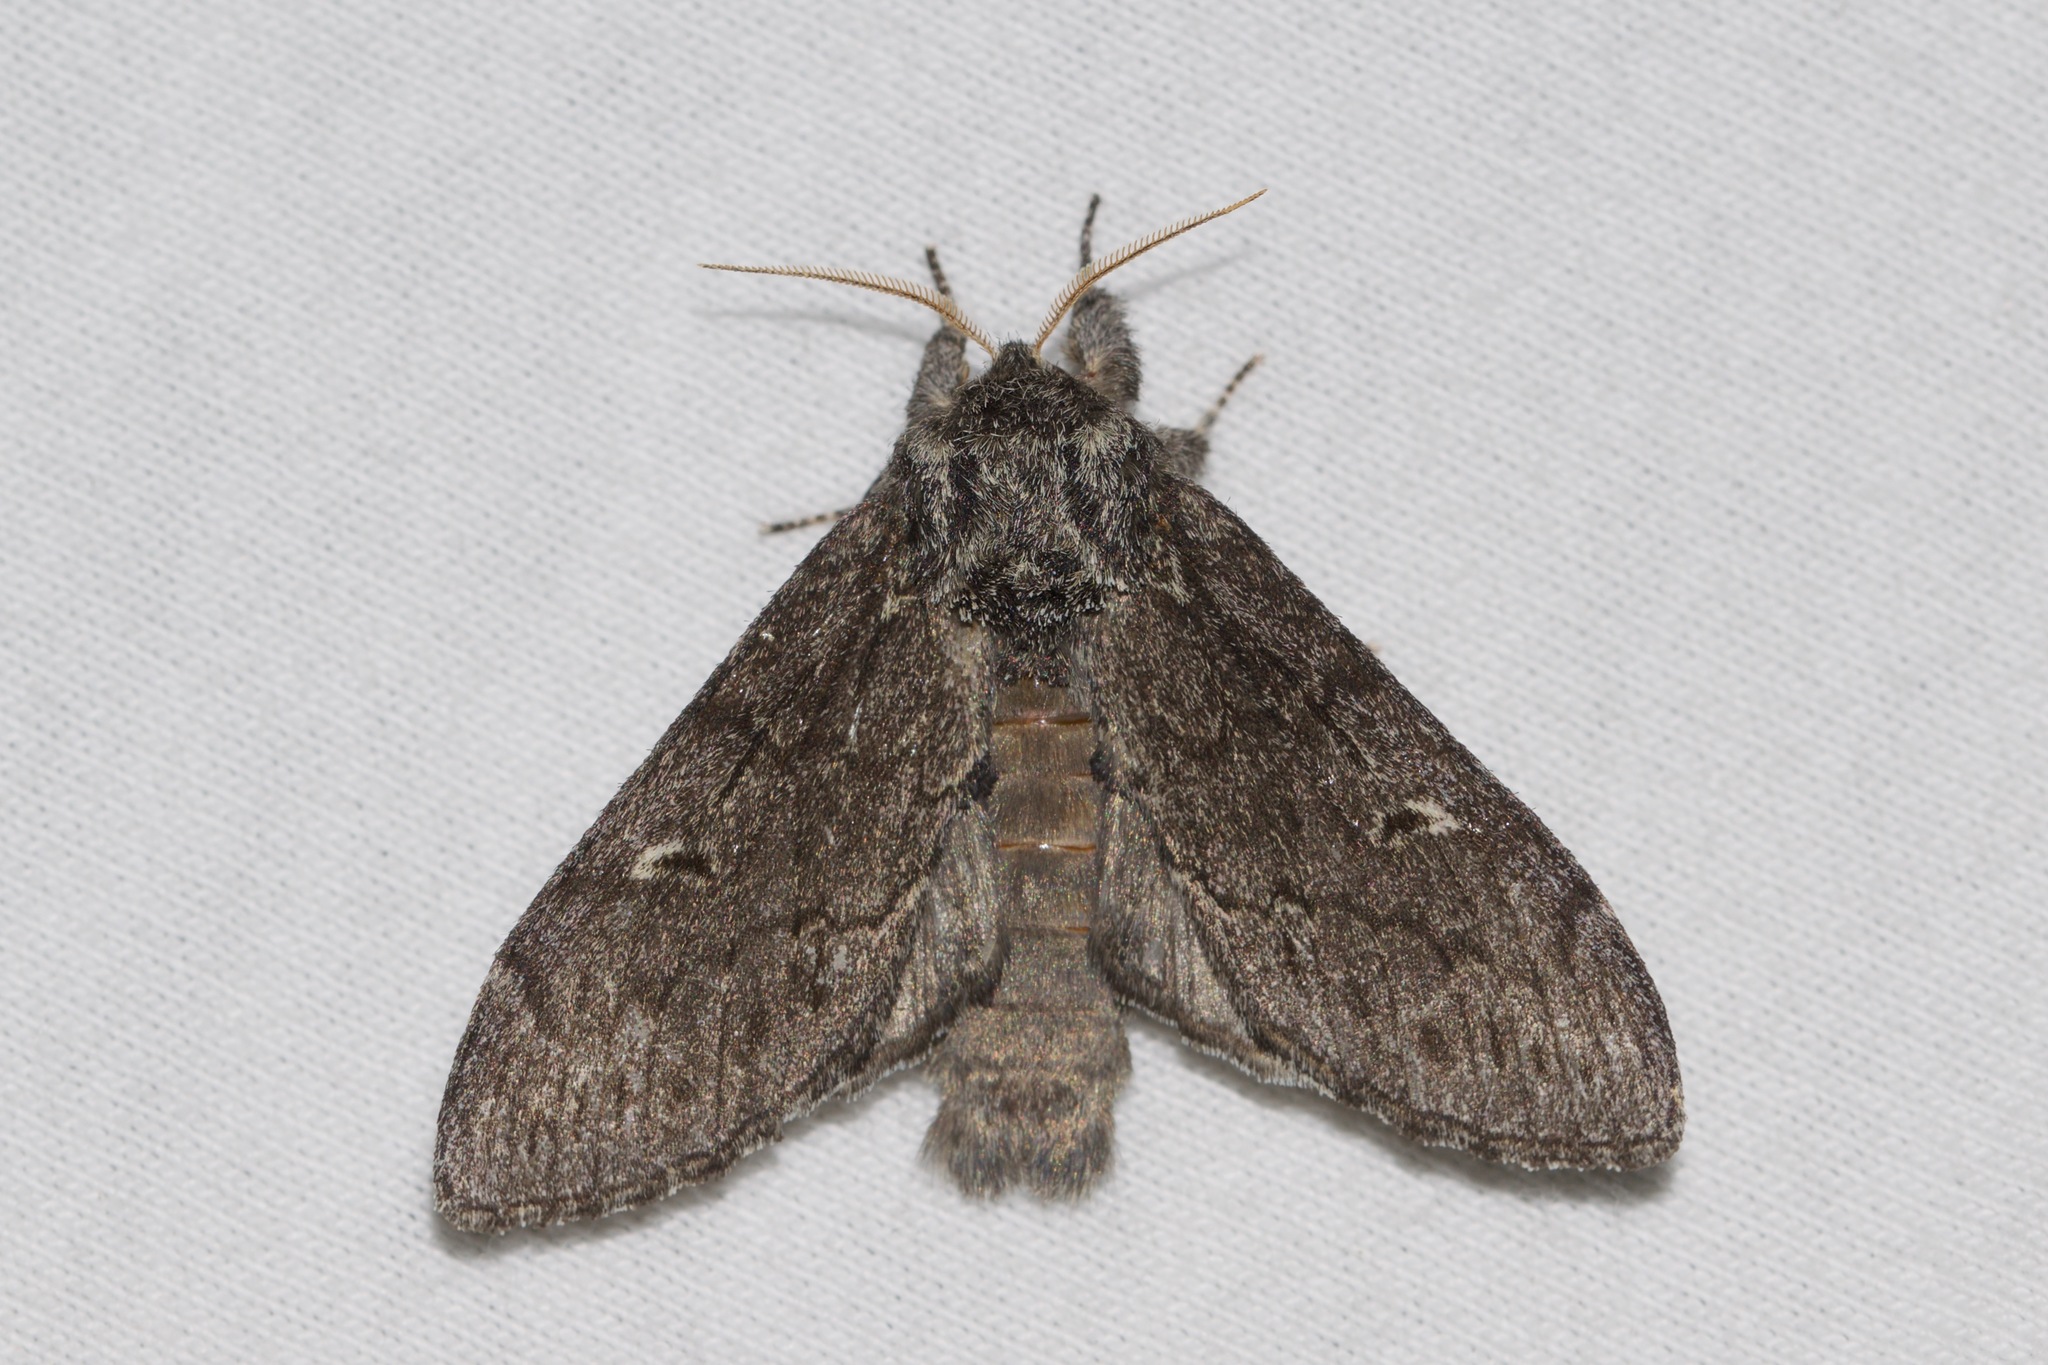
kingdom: Animalia
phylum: Arthropoda
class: Insecta
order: Lepidoptera
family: Notodontidae
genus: Notodonta
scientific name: Notodonta torva
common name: Large dark prominent
